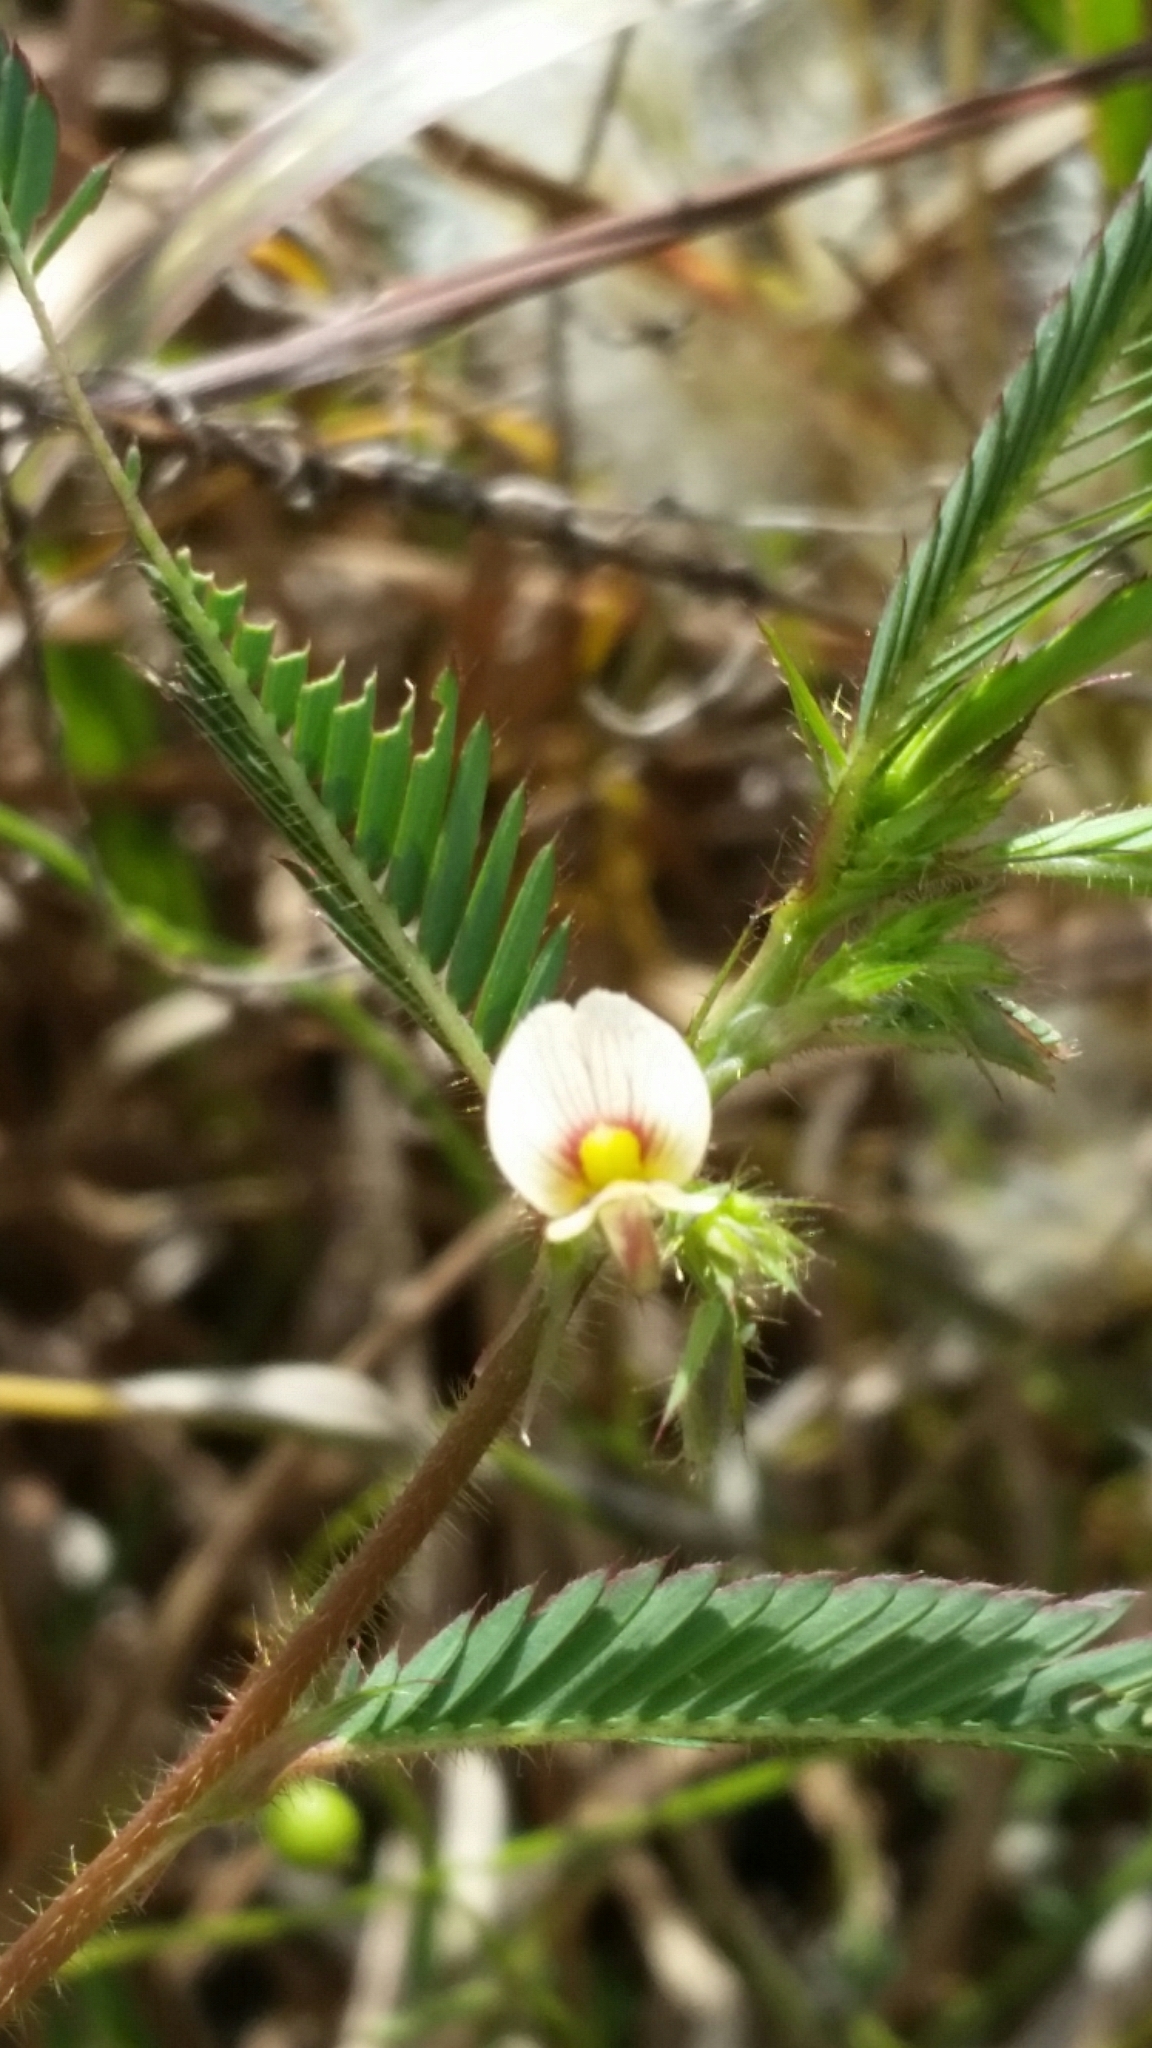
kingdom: Plantae
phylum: Tracheophyta
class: Magnoliopsida
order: Fabales
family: Fabaceae
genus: Aeschynomene
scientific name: Aeschynomene americana
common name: Joint-vetch
